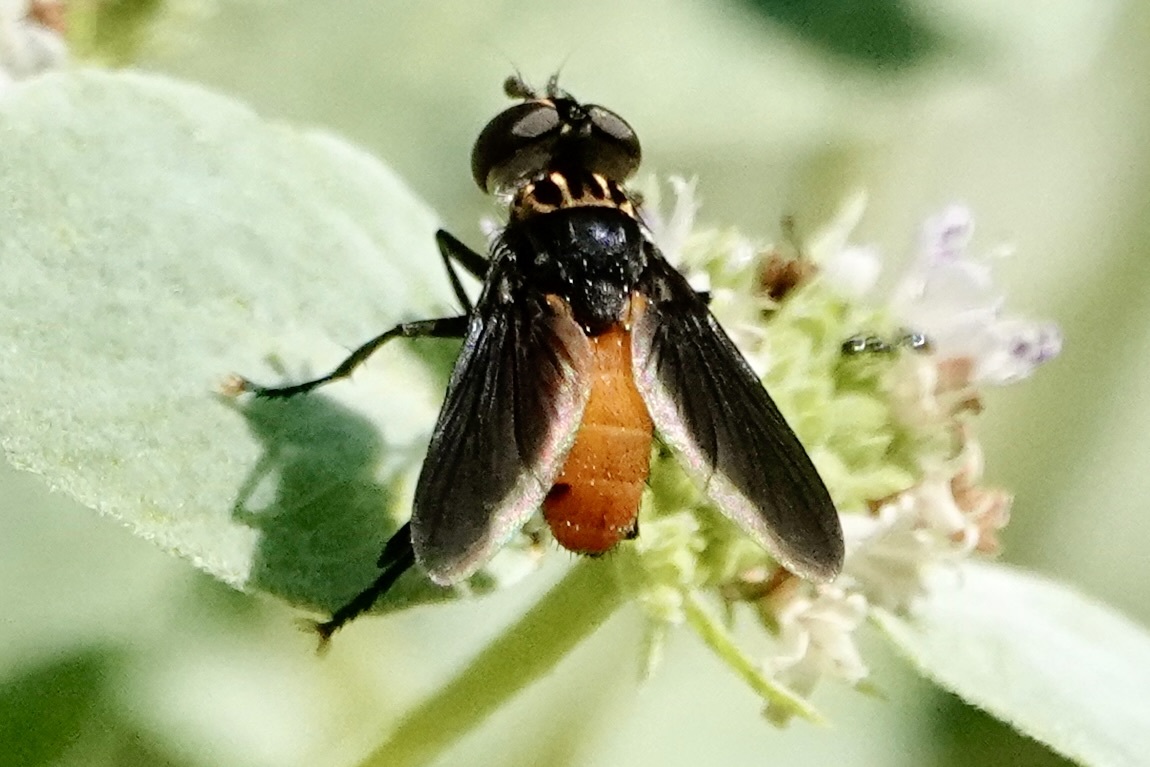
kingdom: Animalia
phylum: Arthropoda
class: Insecta
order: Diptera
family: Tachinidae
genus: Trichopoda
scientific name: Trichopoda pennipes
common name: Tachinid fly
